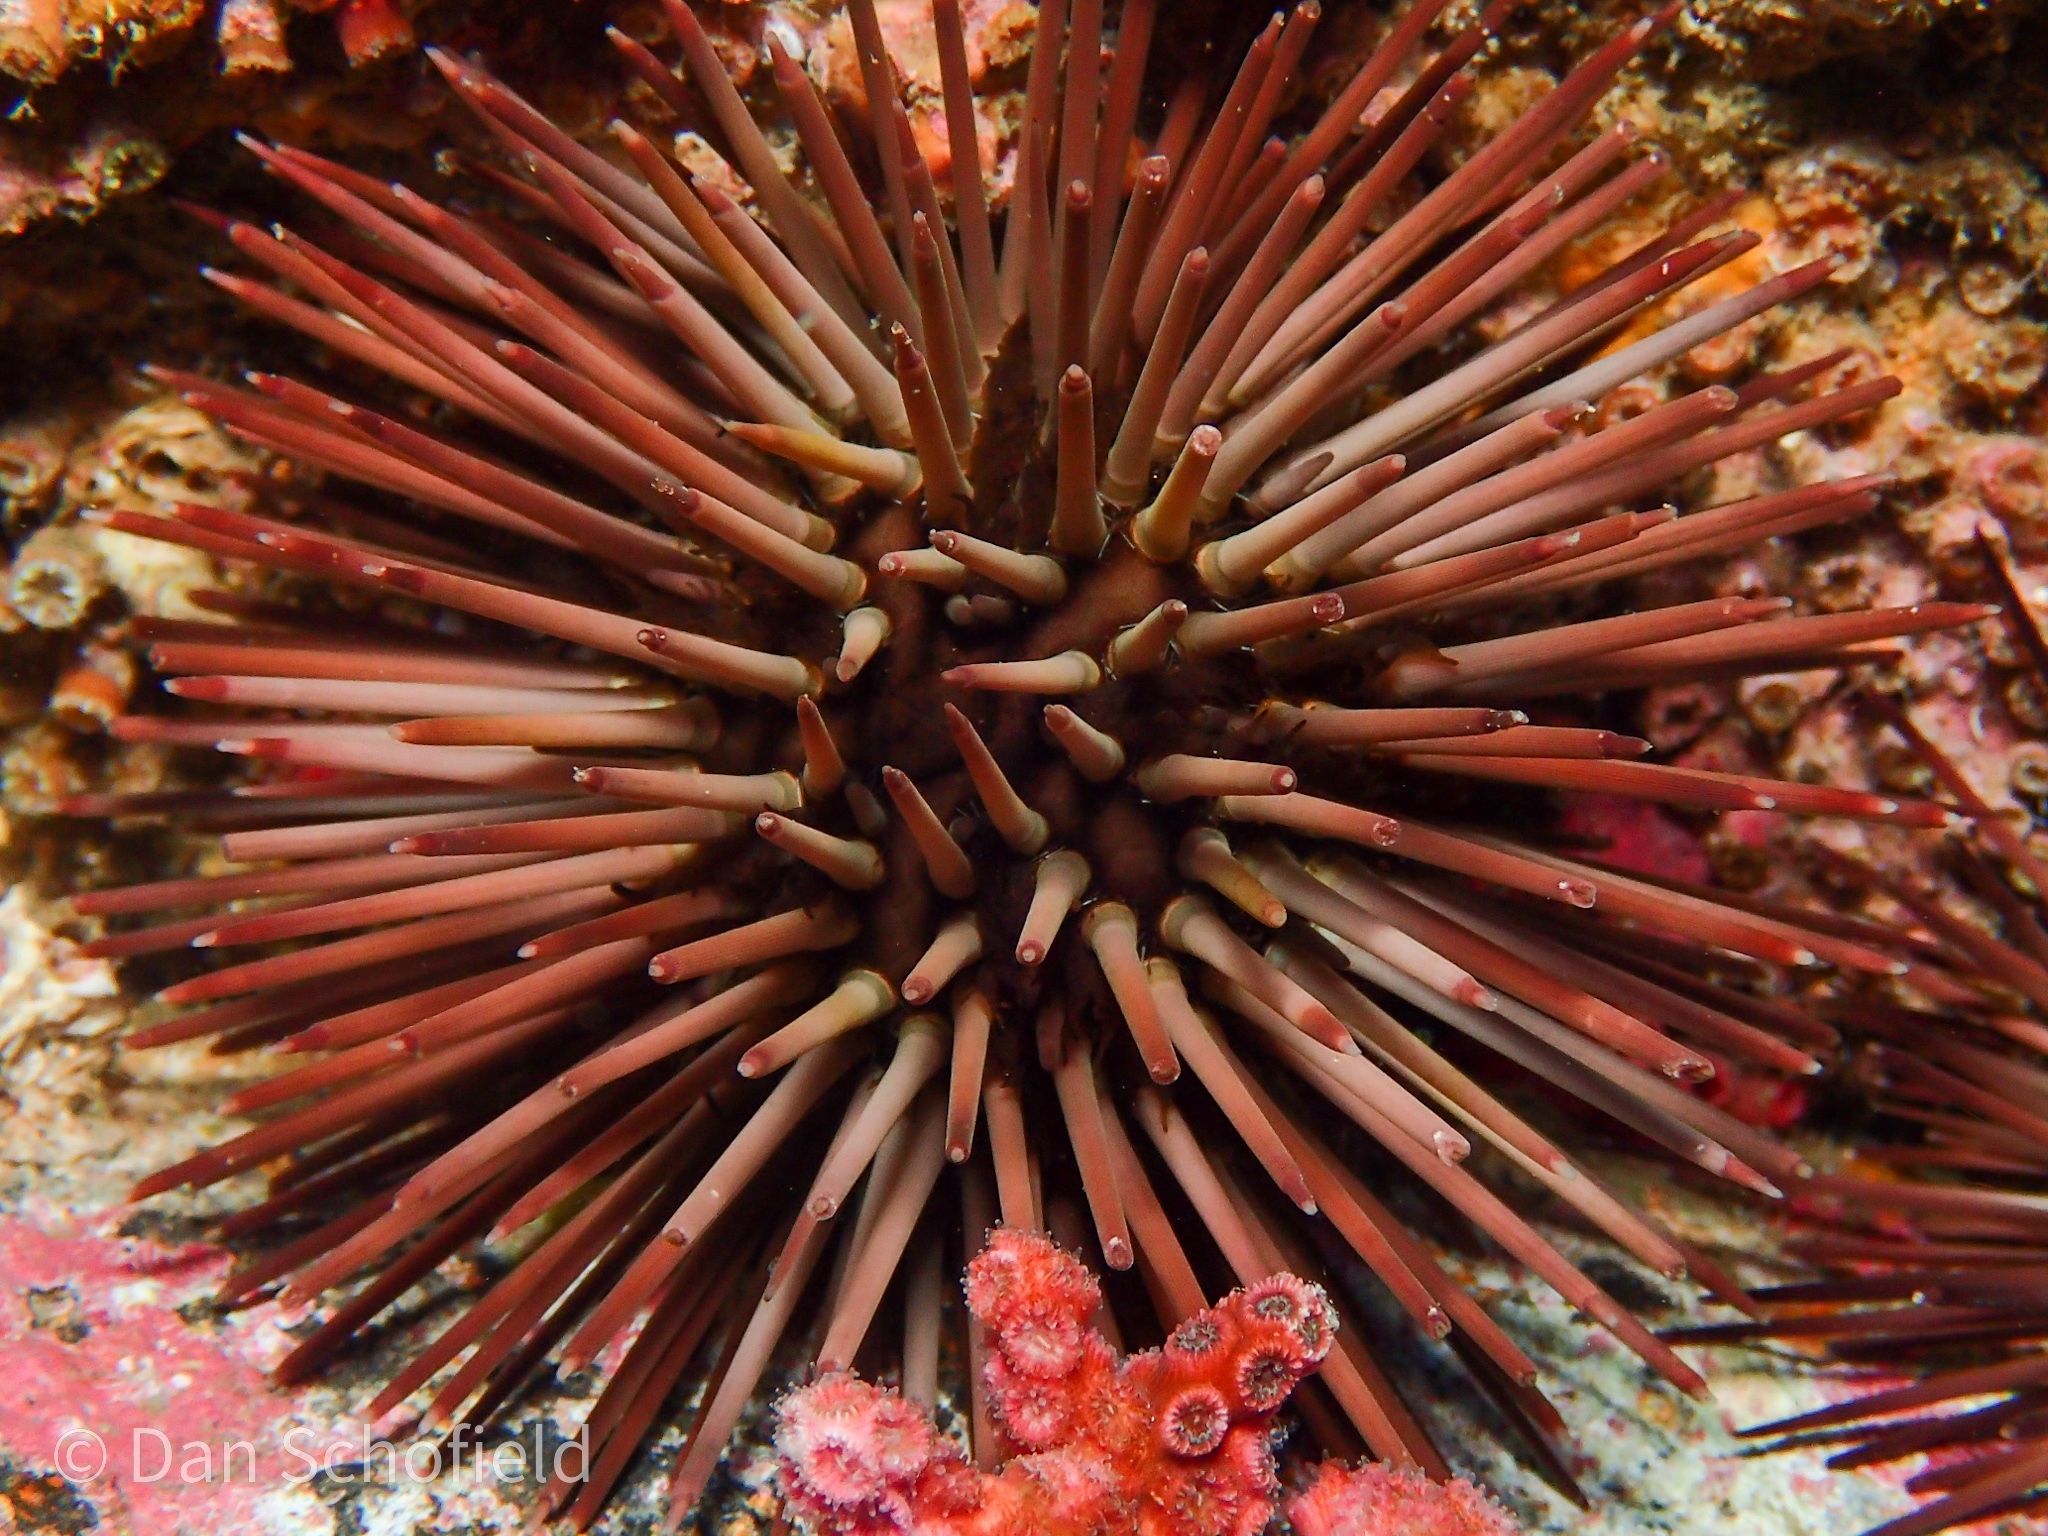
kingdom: Animalia
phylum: Echinodermata
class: Echinoidea
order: Arbacioida
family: Arbaciidae
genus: Arbacia
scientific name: Arbacia punctulata
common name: Purple-spined sea urchin
